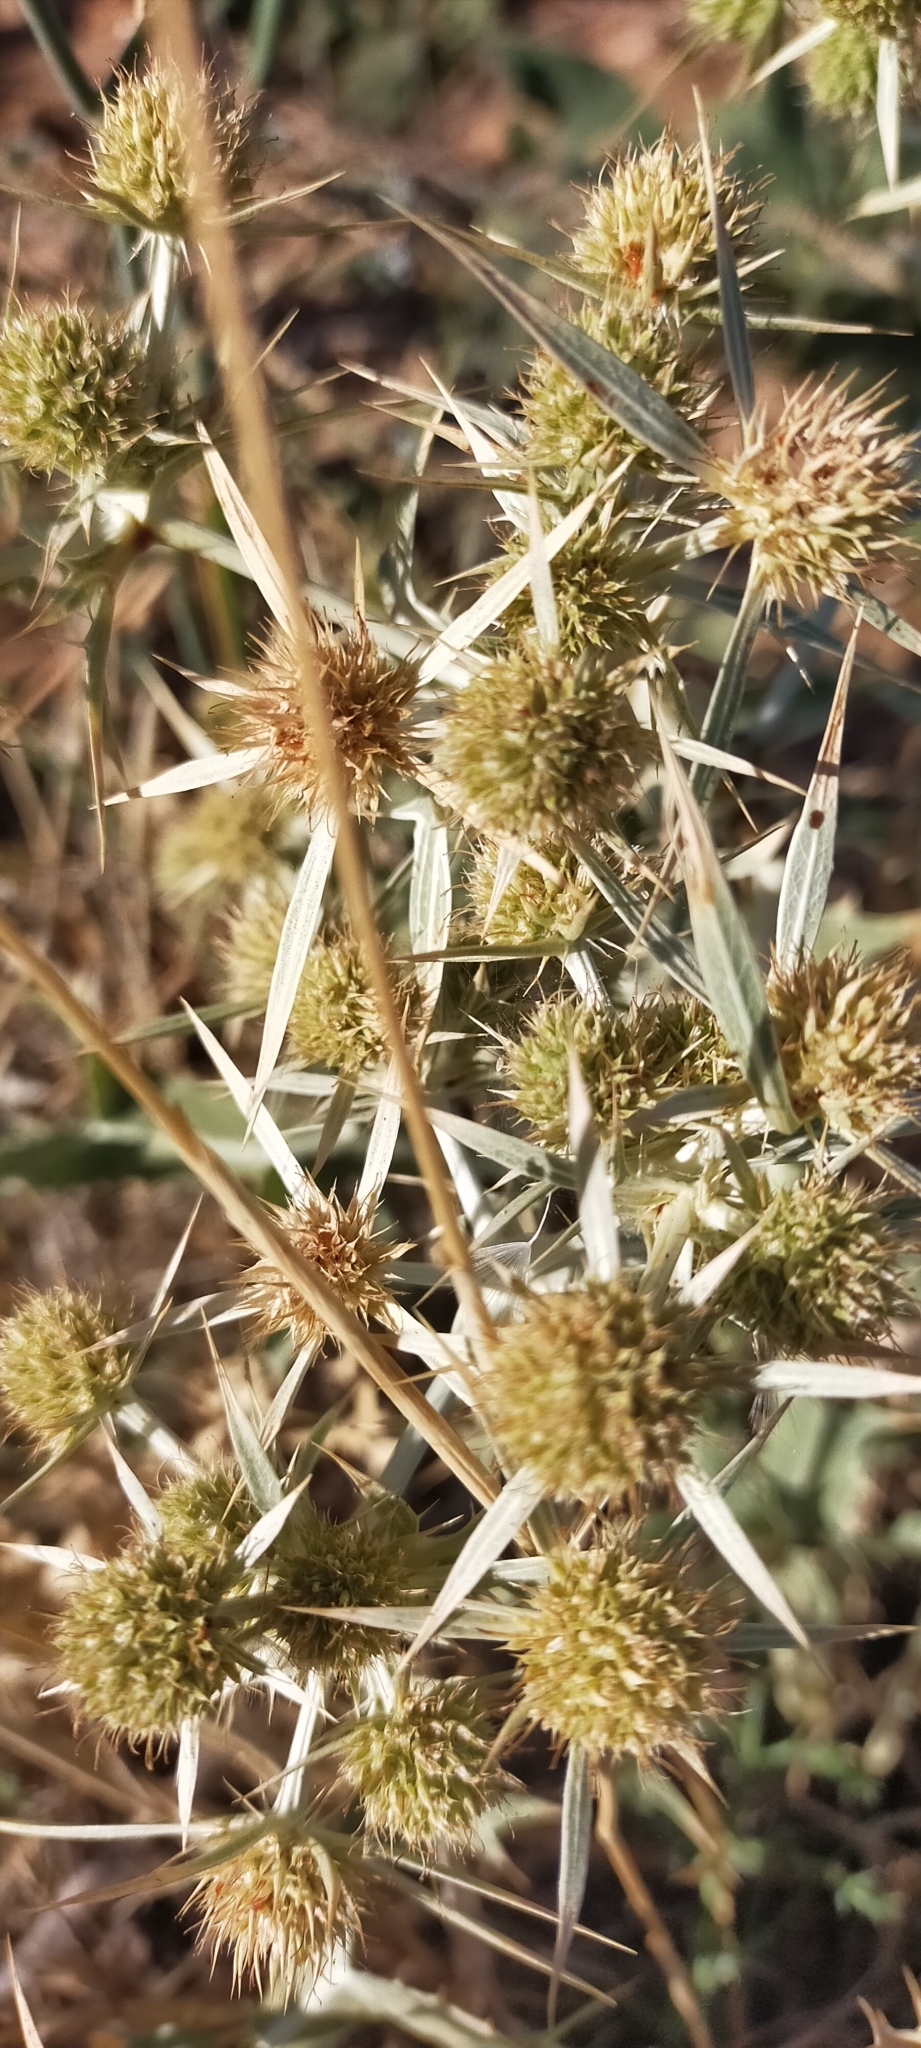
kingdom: Plantae
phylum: Tracheophyta
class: Magnoliopsida
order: Apiales
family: Apiaceae
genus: Eryngium
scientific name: Eryngium campestre
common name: Field eryngo
